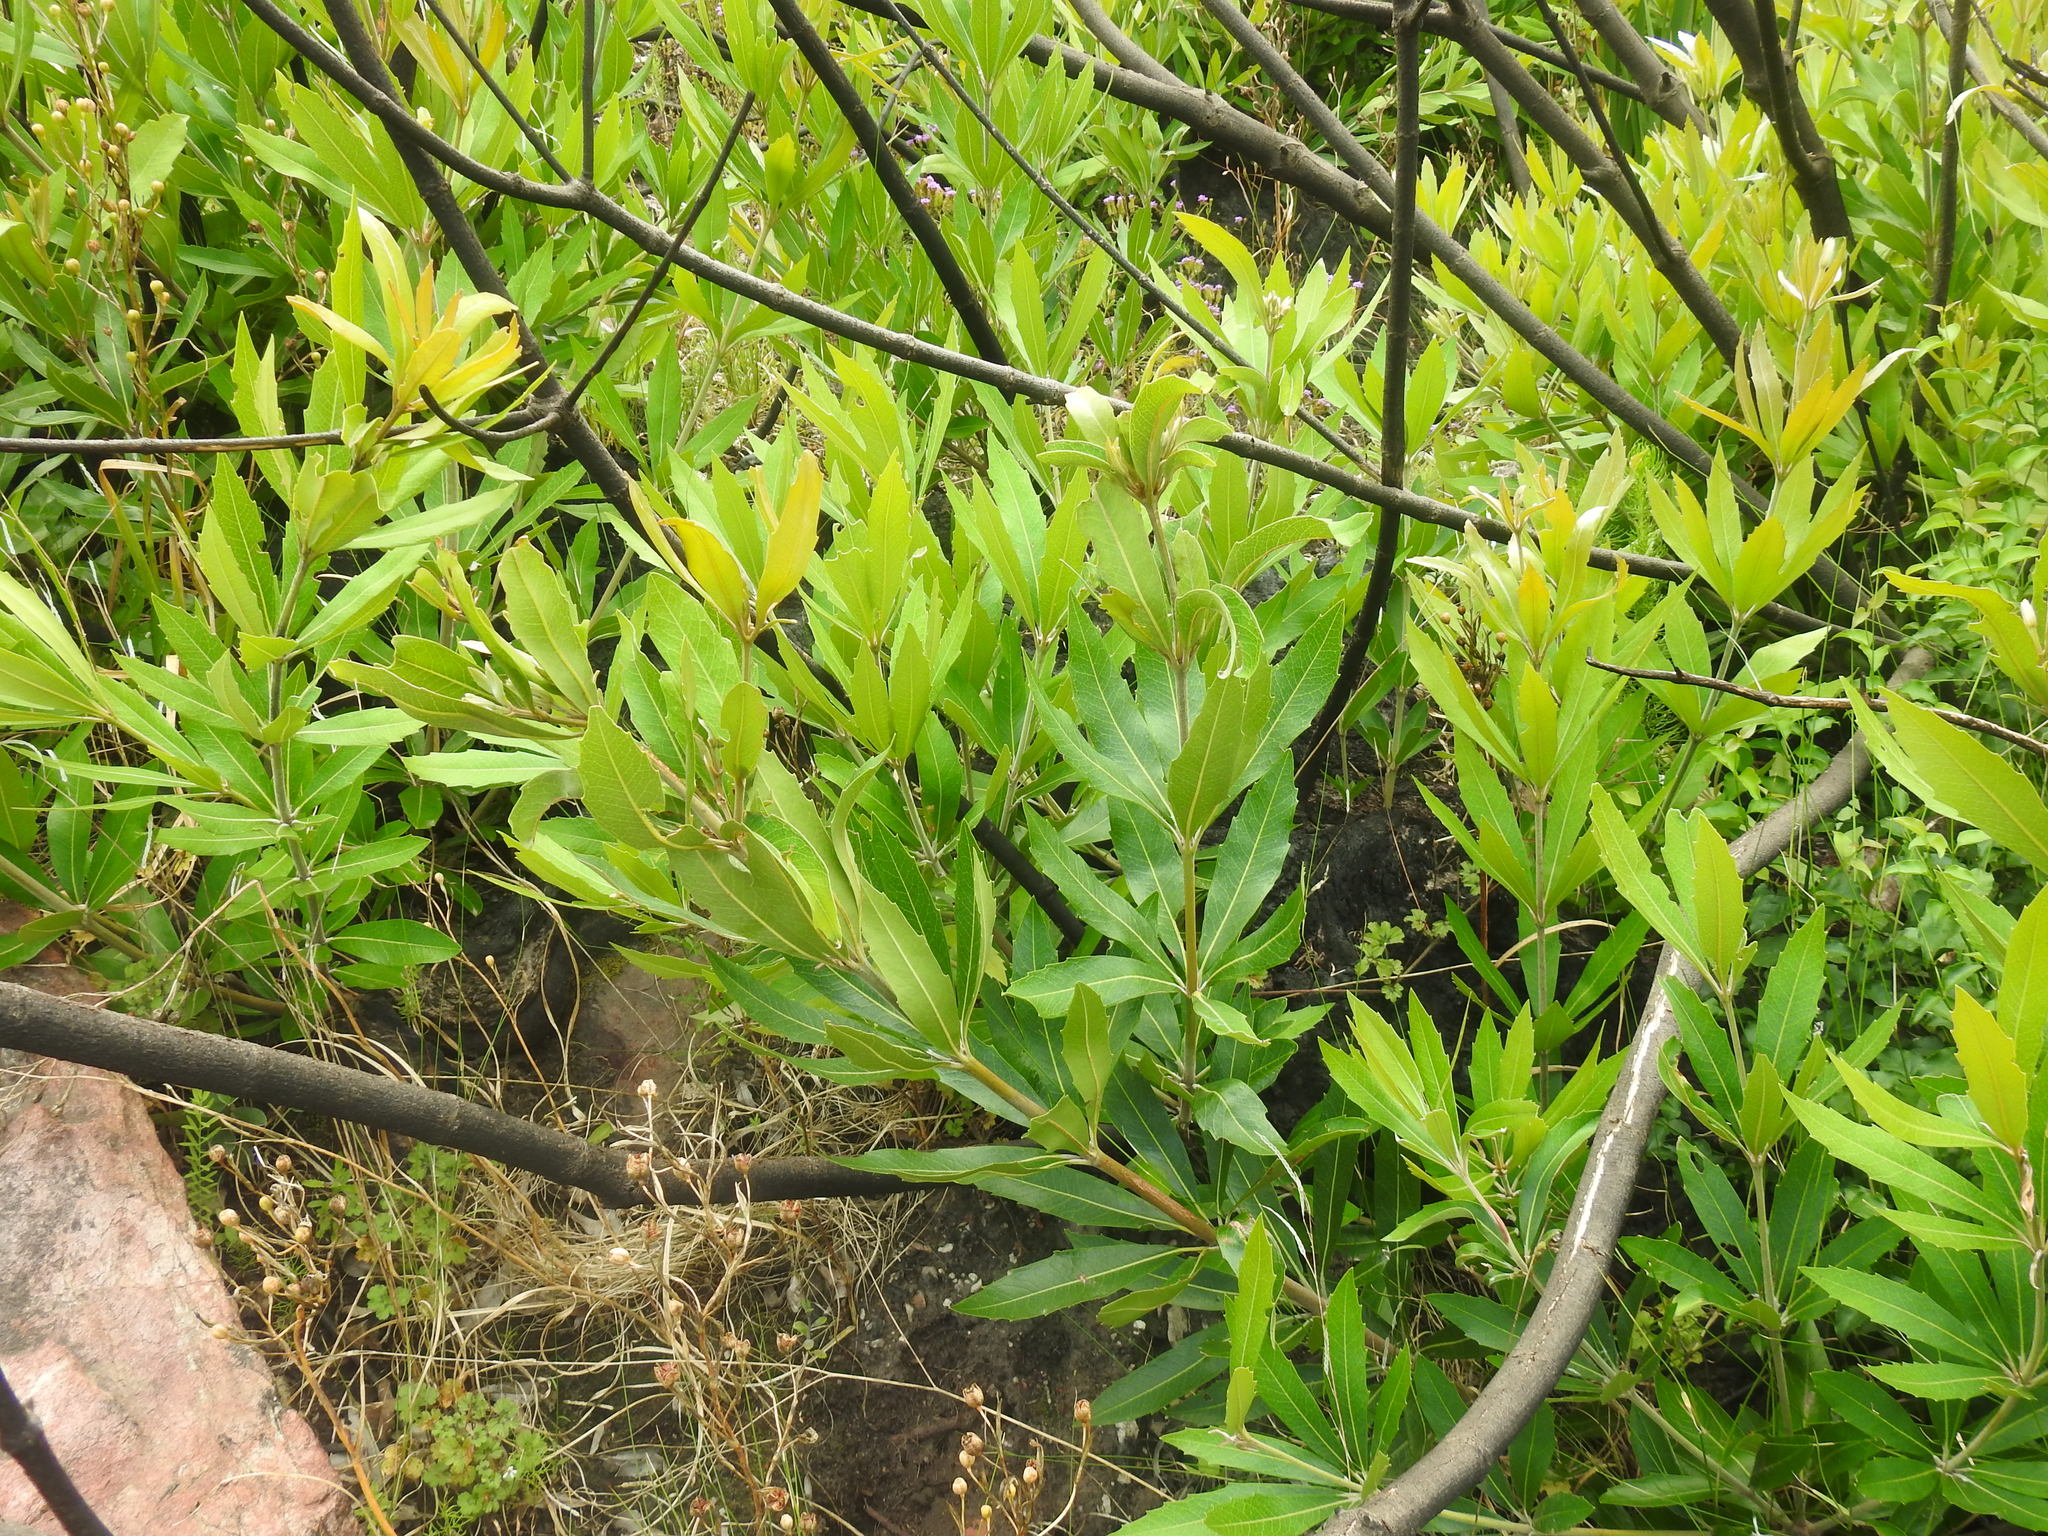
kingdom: Plantae
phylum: Tracheophyta
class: Magnoliopsida
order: Proteales
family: Proteaceae
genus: Brabejum
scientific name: Brabejum stellatifolium
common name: Wild almond
